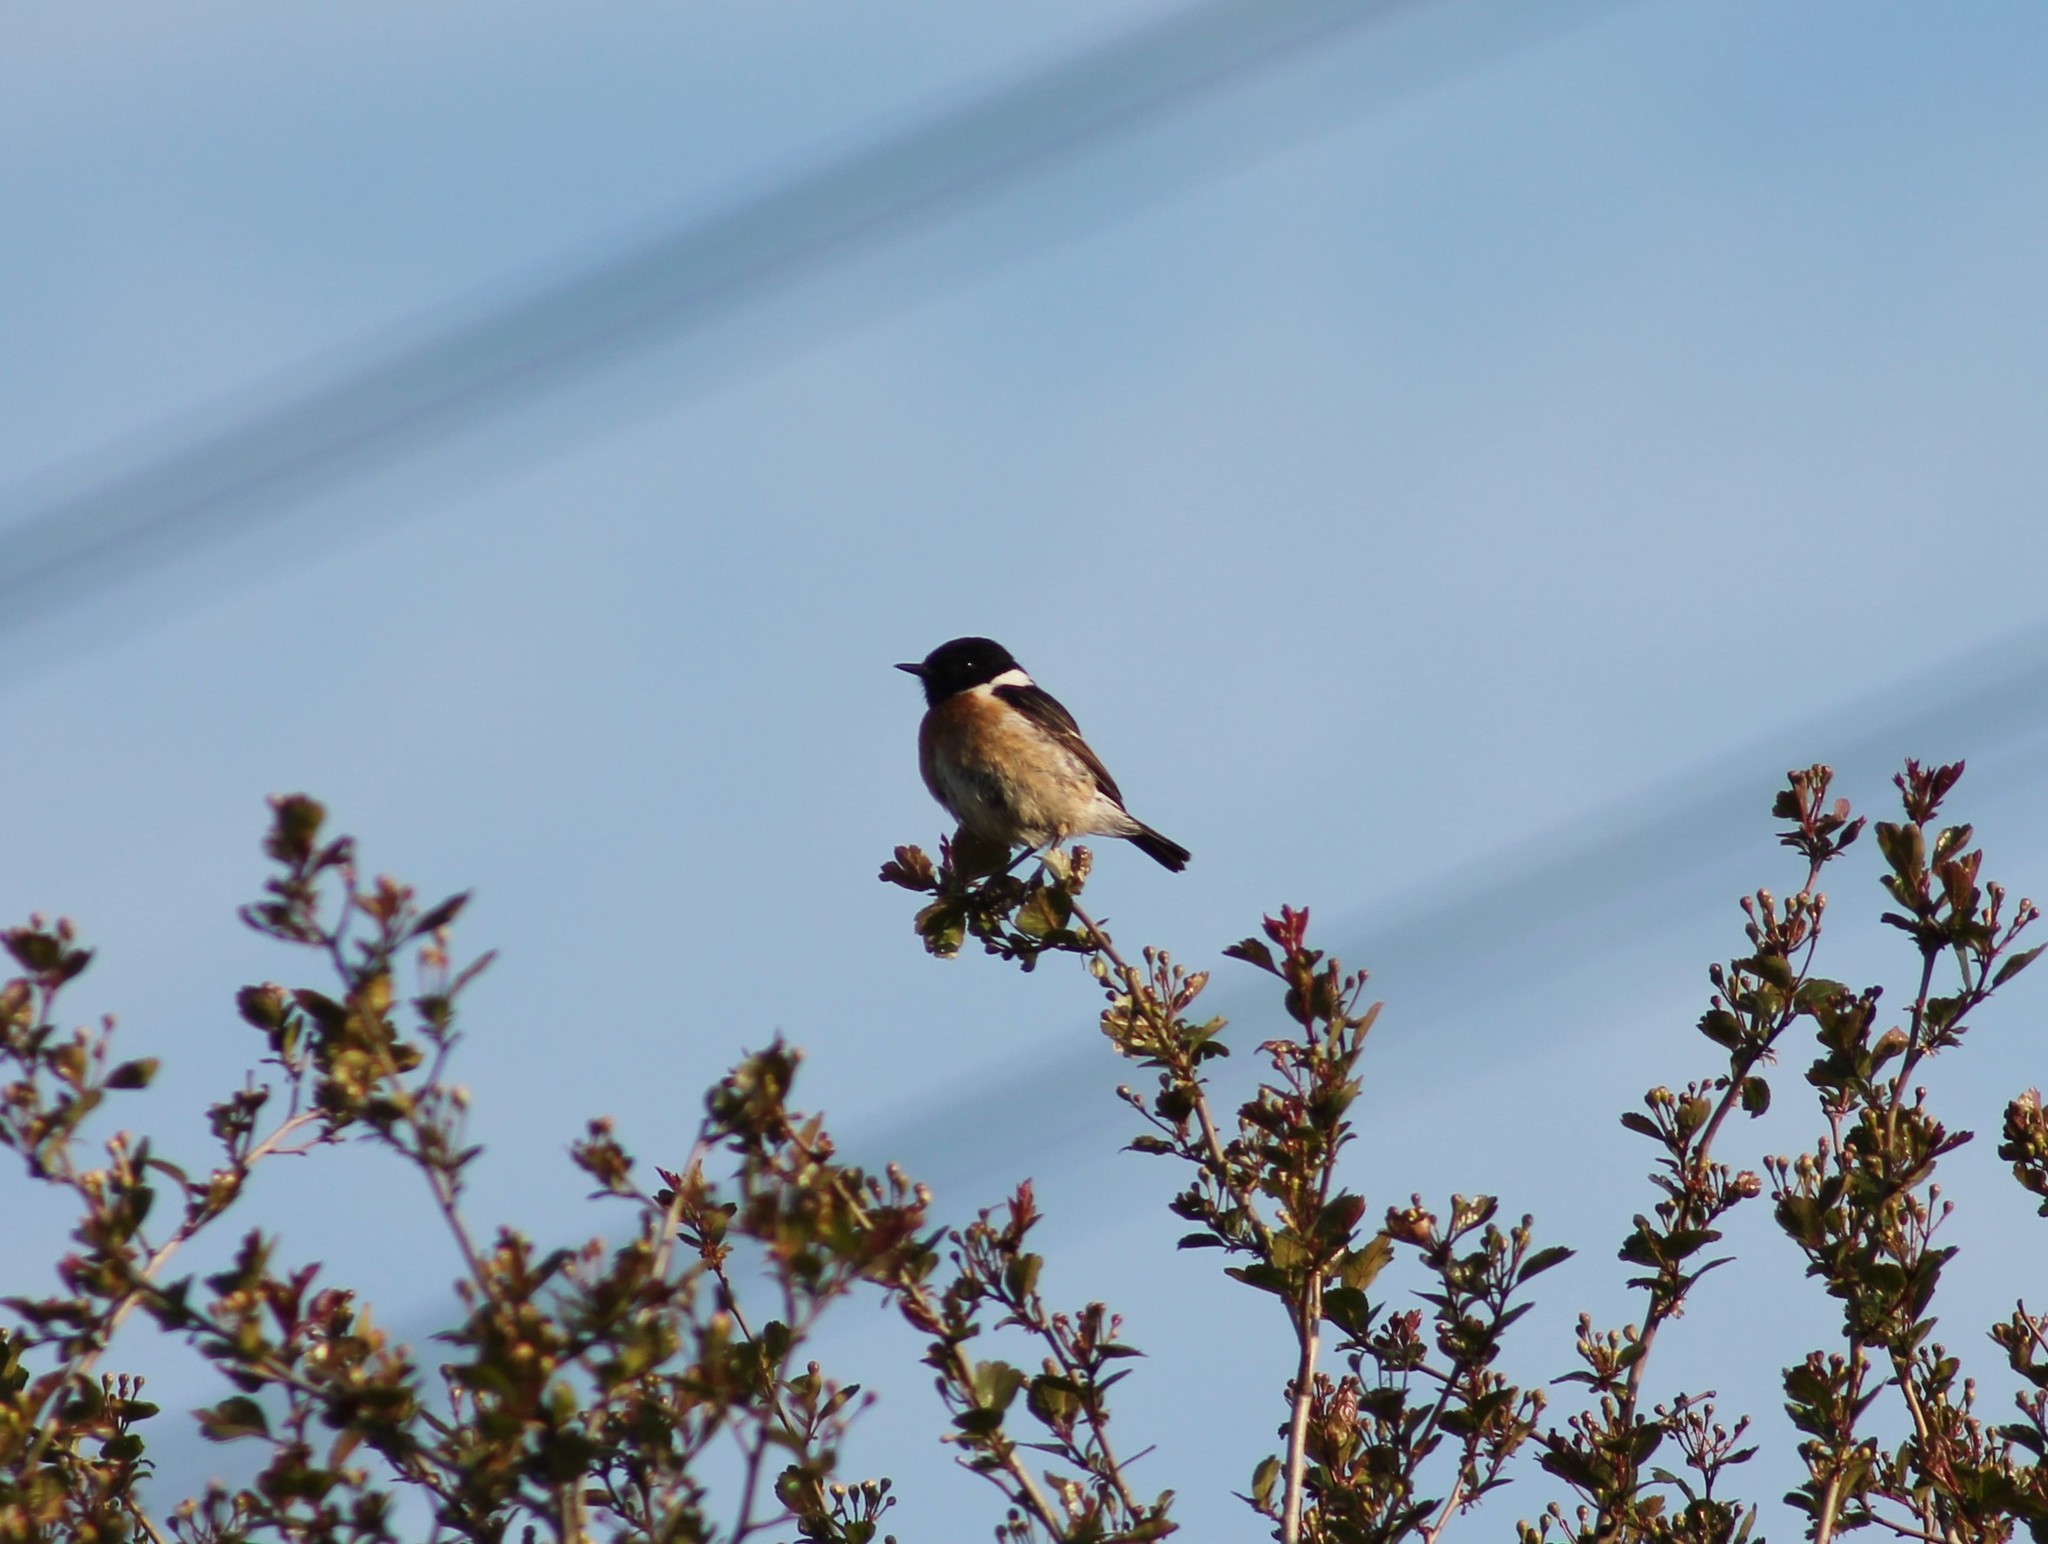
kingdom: Animalia
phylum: Chordata
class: Aves
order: Passeriformes
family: Muscicapidae
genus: Saxicola
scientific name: Saxicola rubicola
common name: European stonechat
